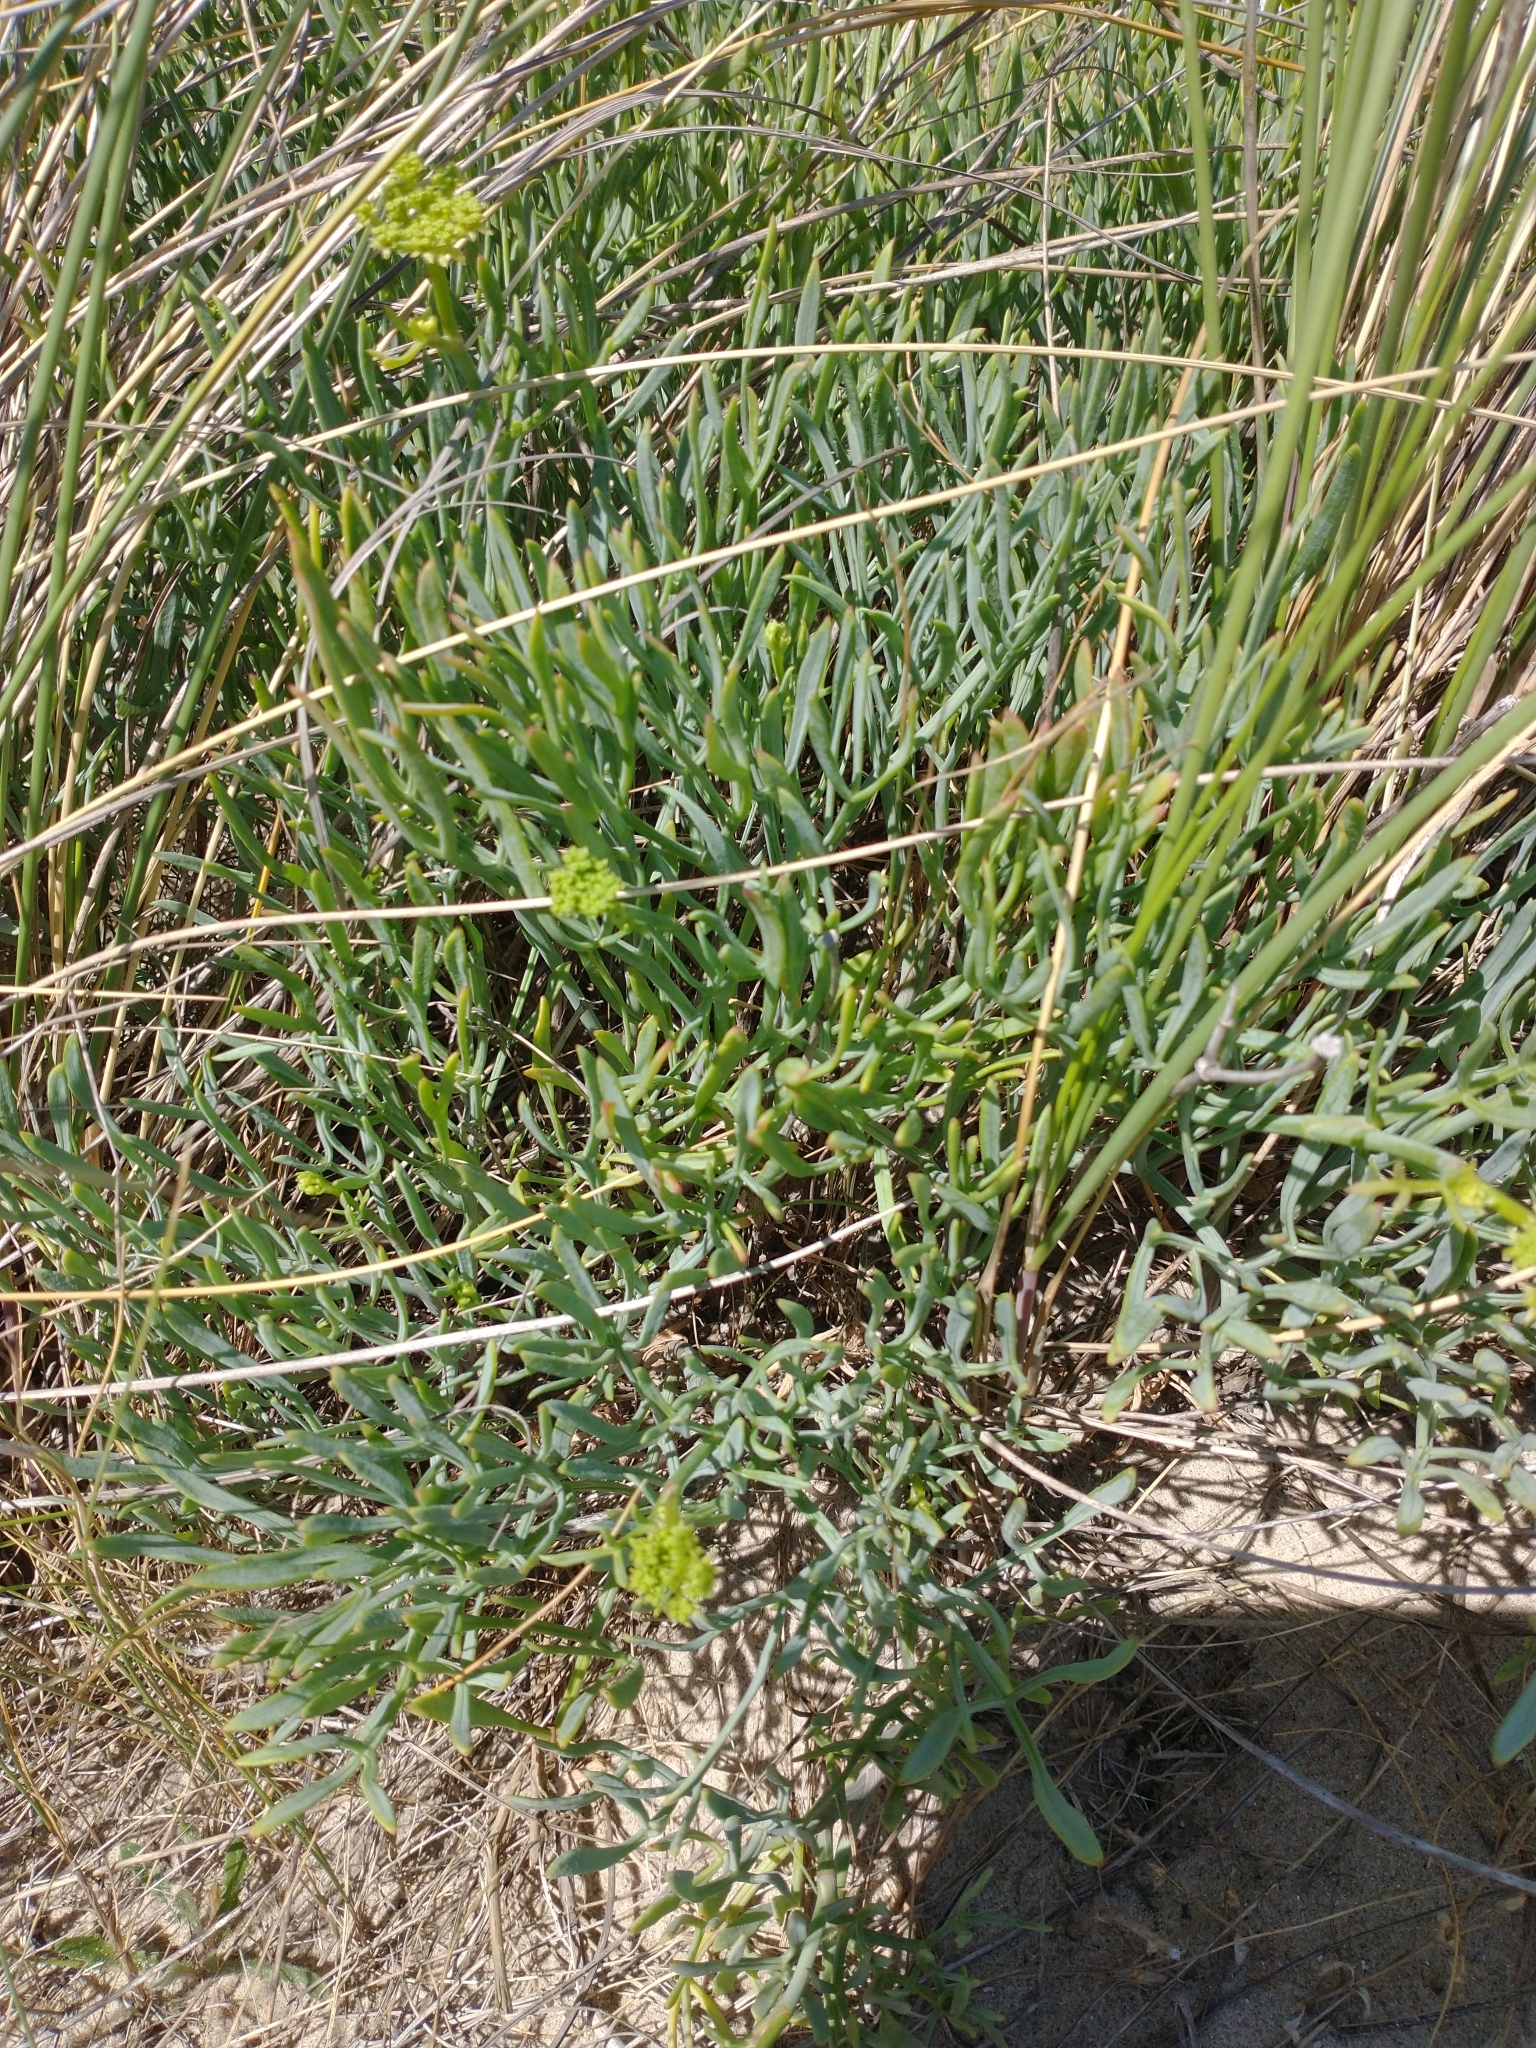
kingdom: Plantae
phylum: Tracheophyta
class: Magnoliopsida
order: Apiales
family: Apiaceae
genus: Crithmum
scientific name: Crithmum maritimum
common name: Rock samphire
